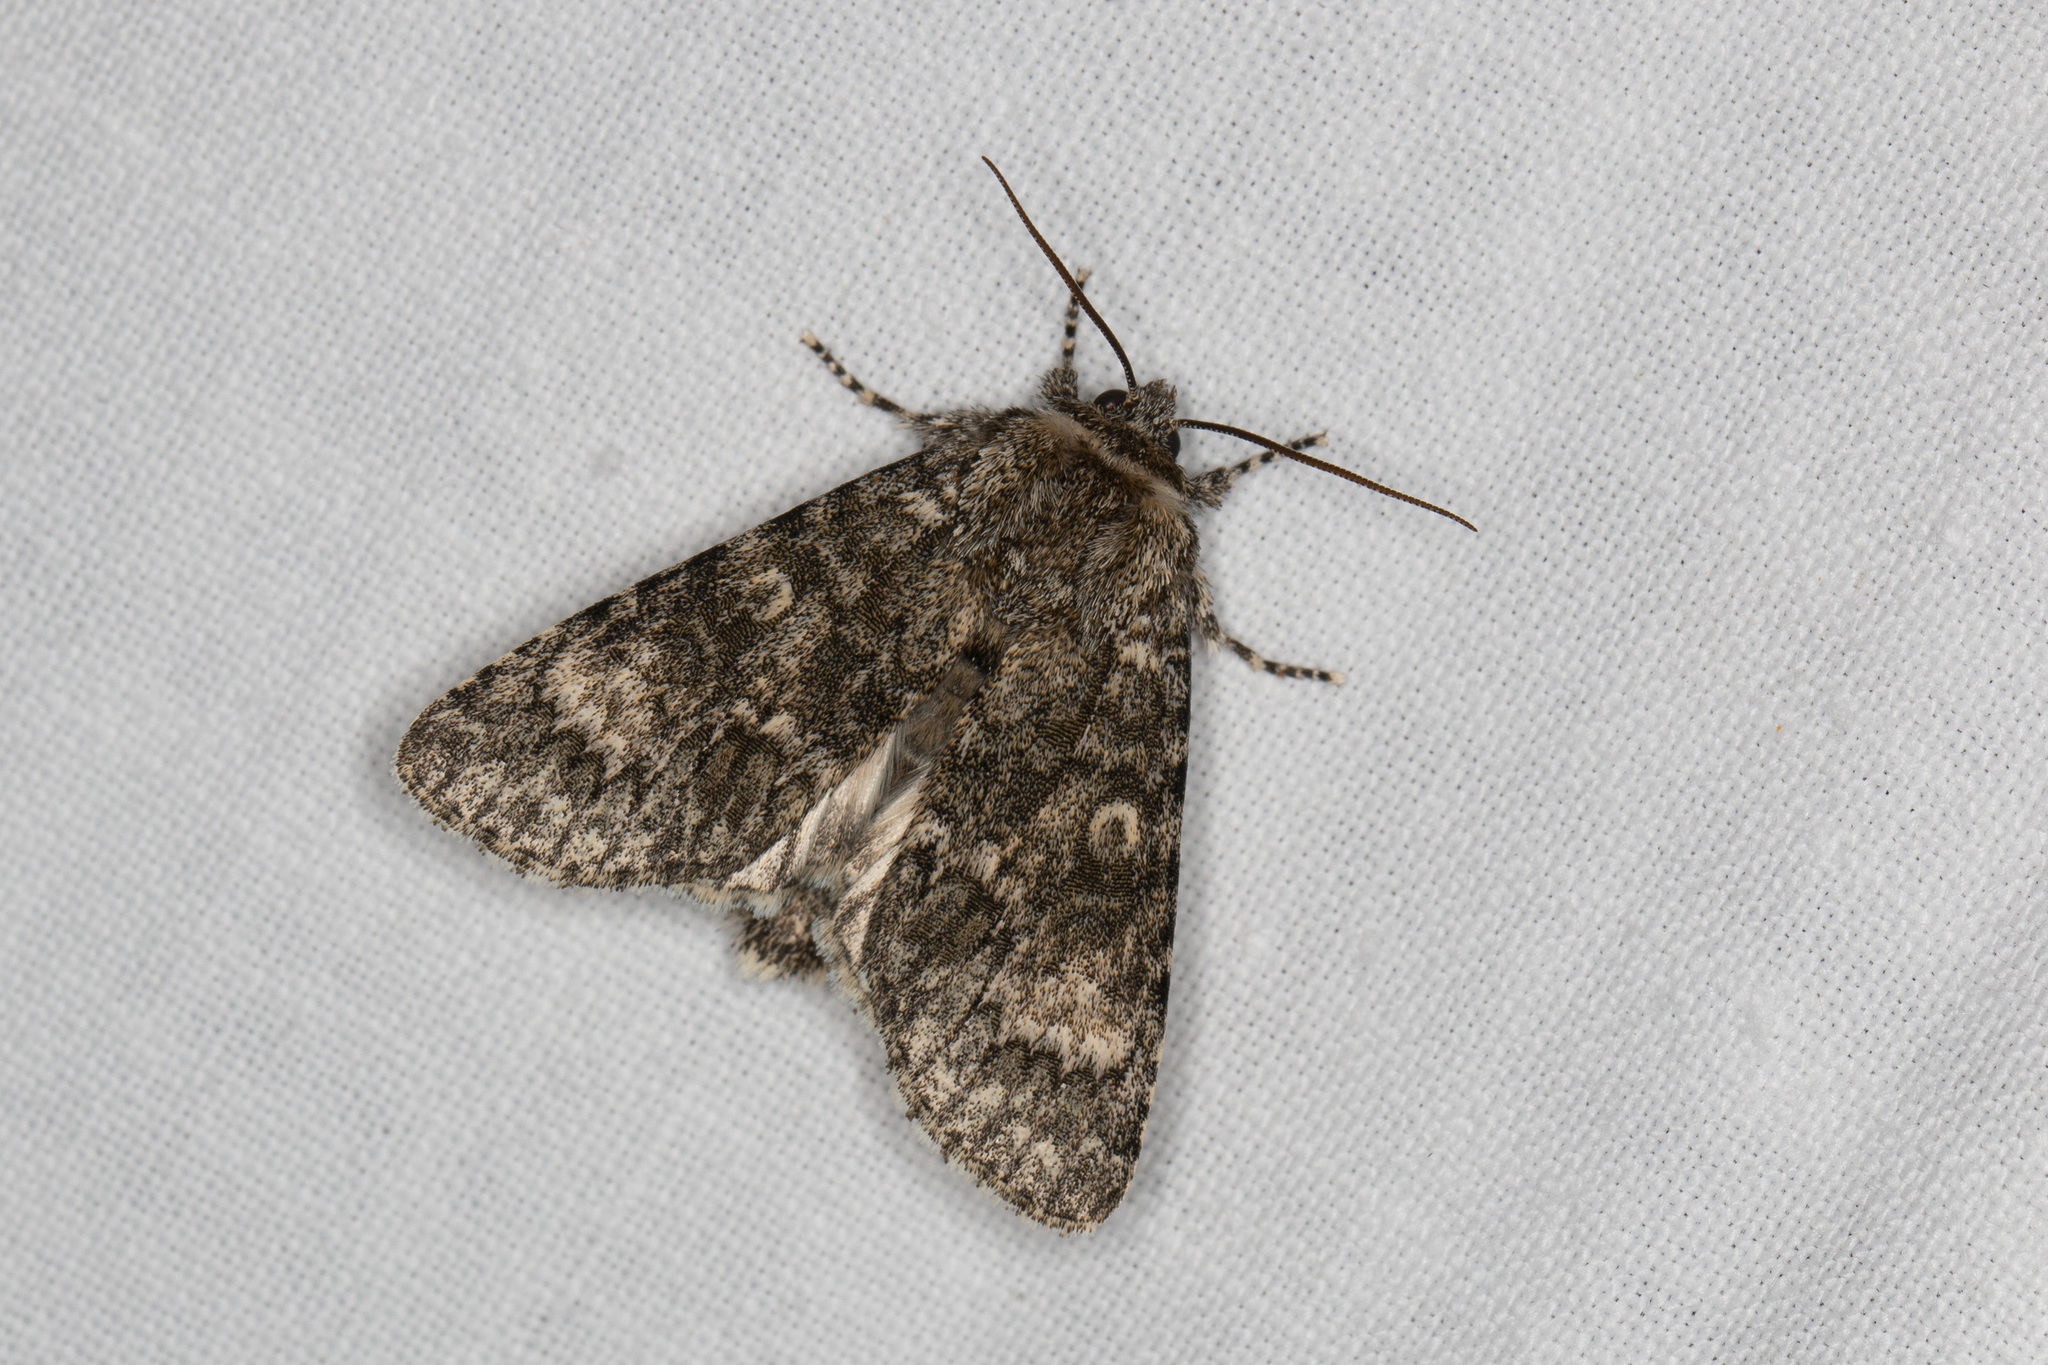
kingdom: Animalia
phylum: Arthropoda
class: Insecta
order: Lepidoptera
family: Noctuidae
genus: Acronicta
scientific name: Acronicta megacephala
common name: Poplar grey
